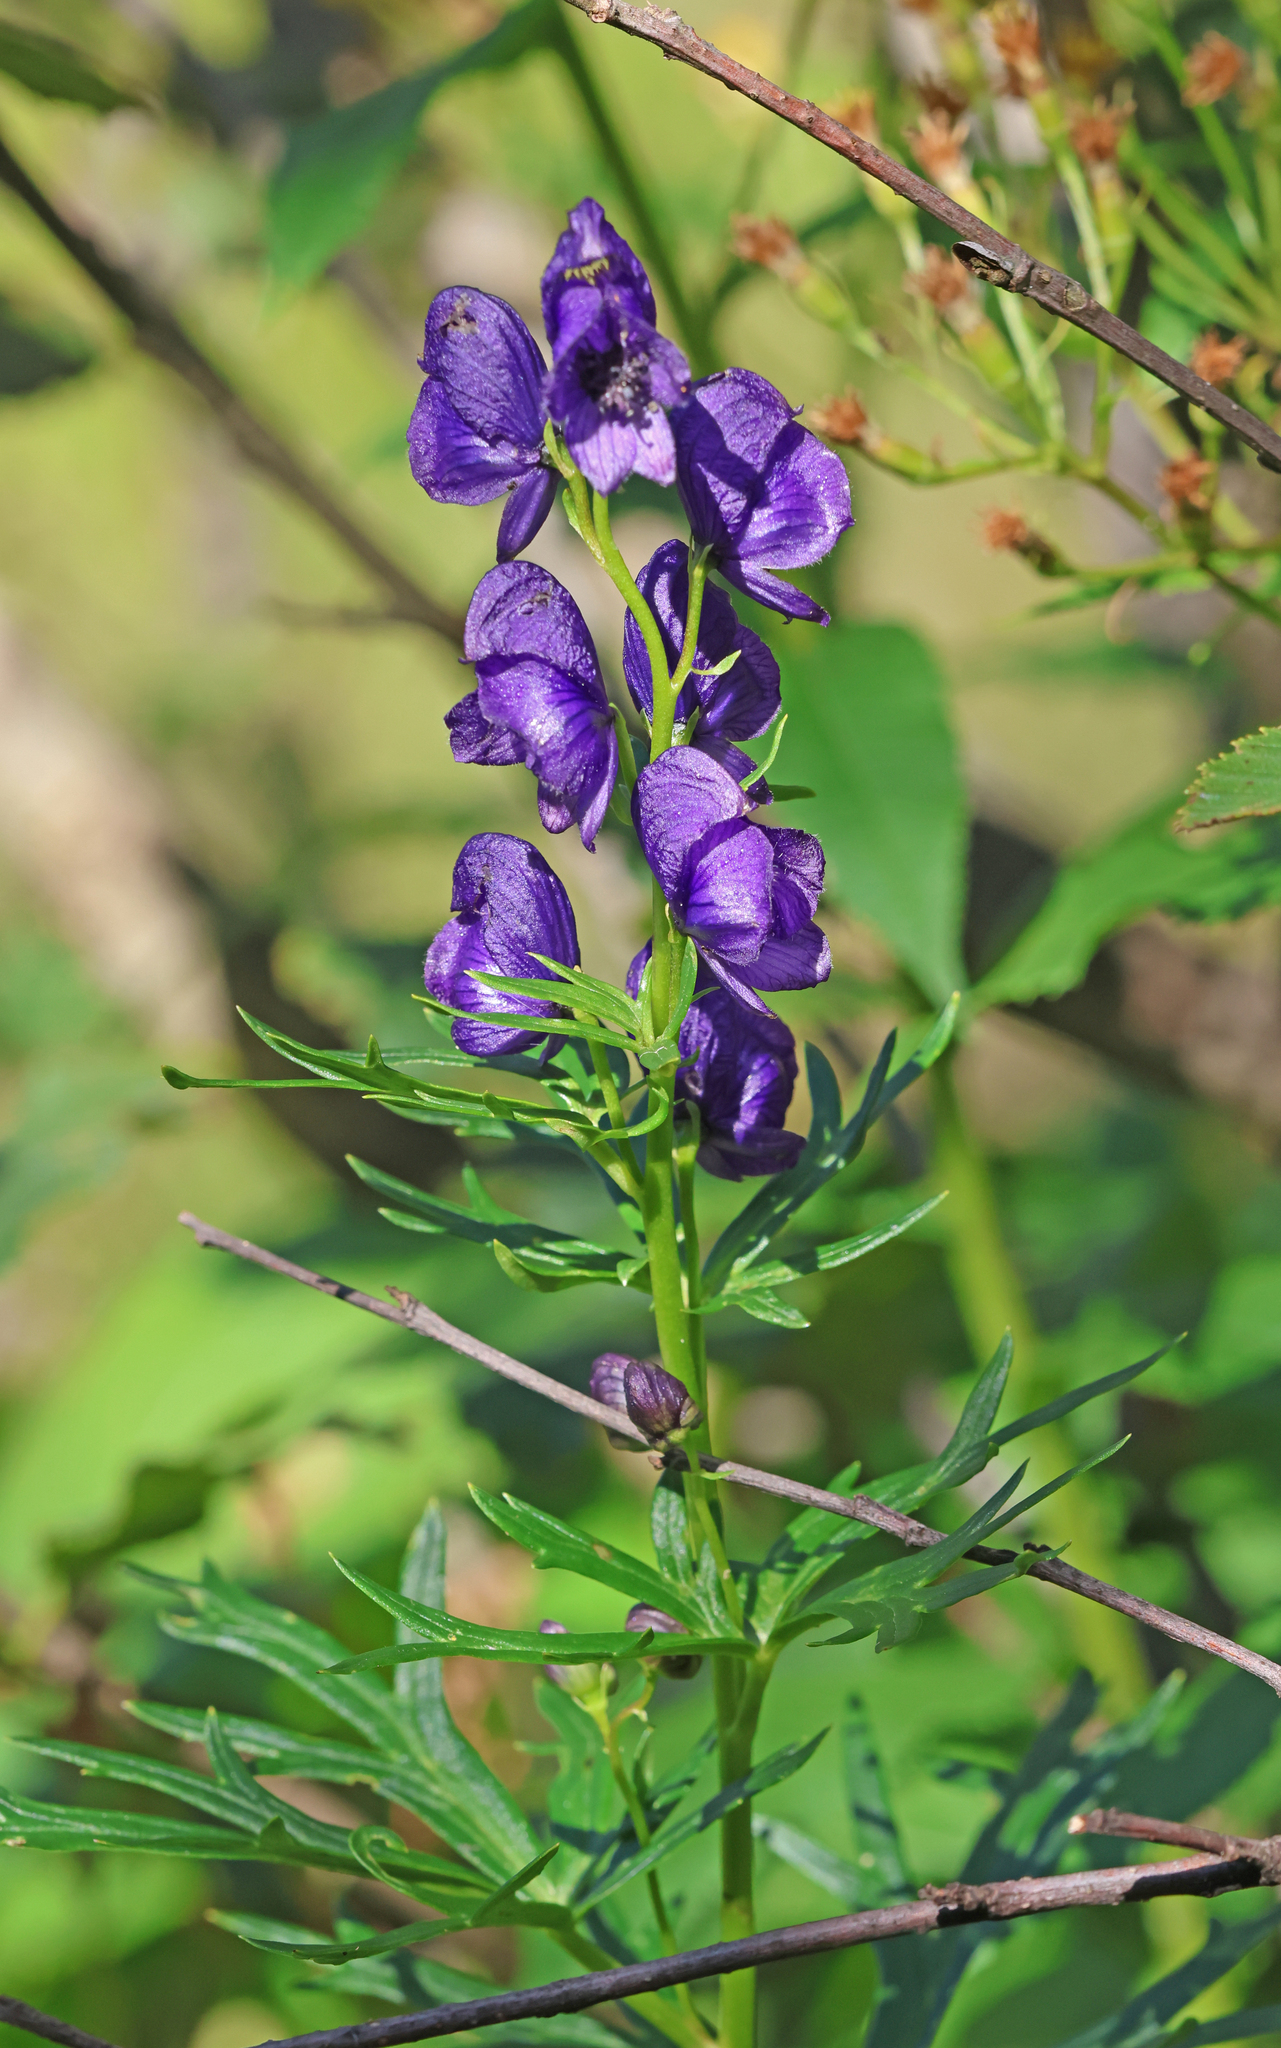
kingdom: Plantae
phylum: Tracheophyta
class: Magnoliopsida
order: Ranunculales
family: Ranunculaceae
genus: Aconitum
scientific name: Aconitum tauricum
